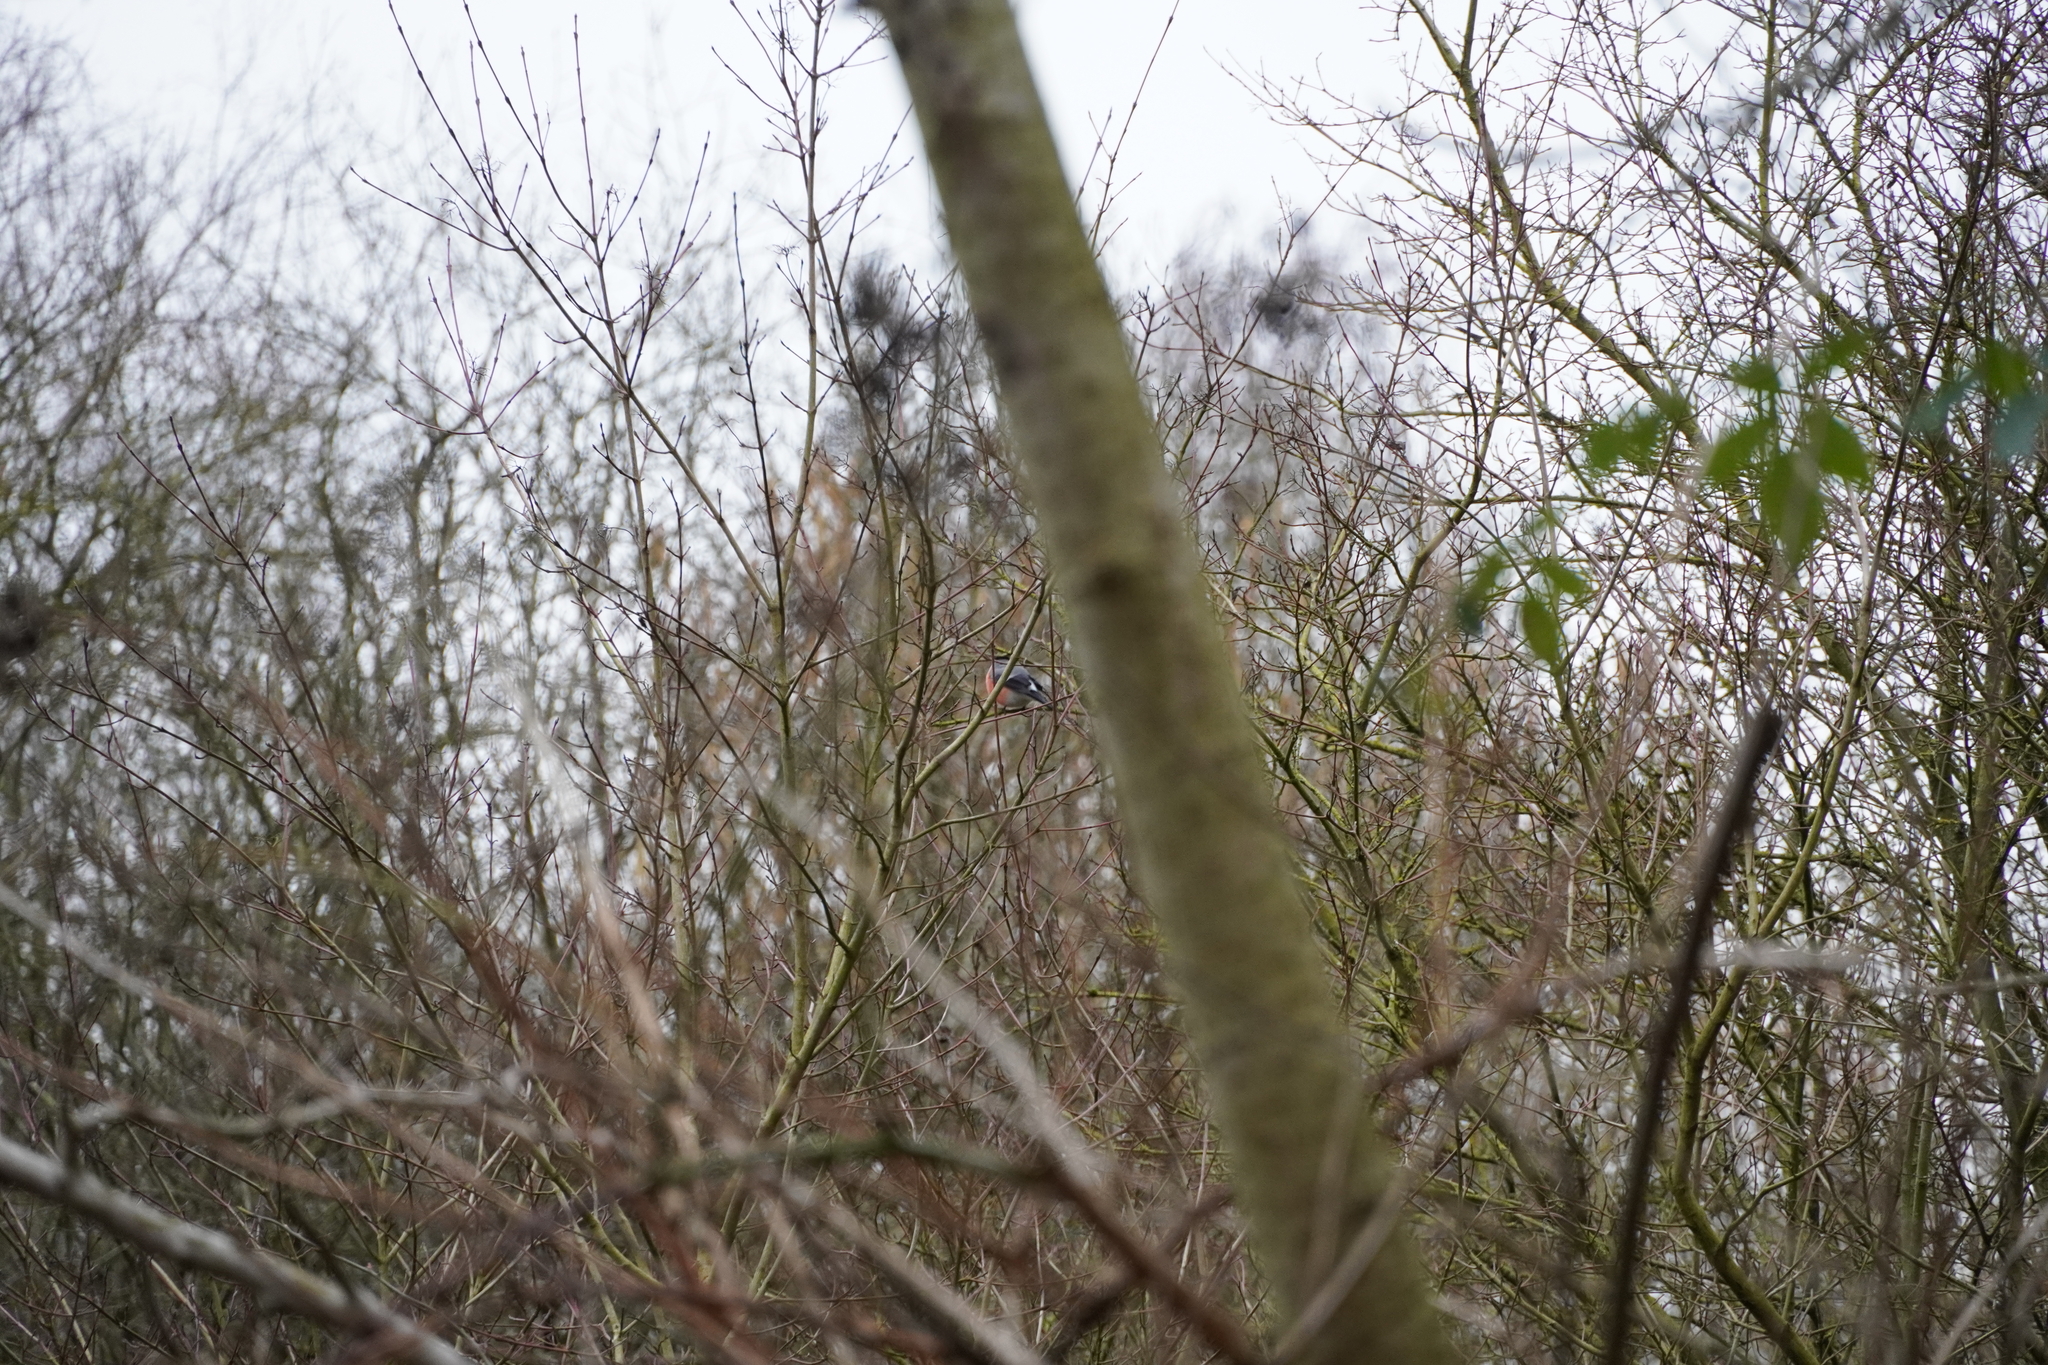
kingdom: Animalia
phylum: Chordata
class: Aves
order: Passeriformes
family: Fringillidae
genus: Pyrrhula
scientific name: Pyrrhula pyrrhula
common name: Eurasian bullfinch
